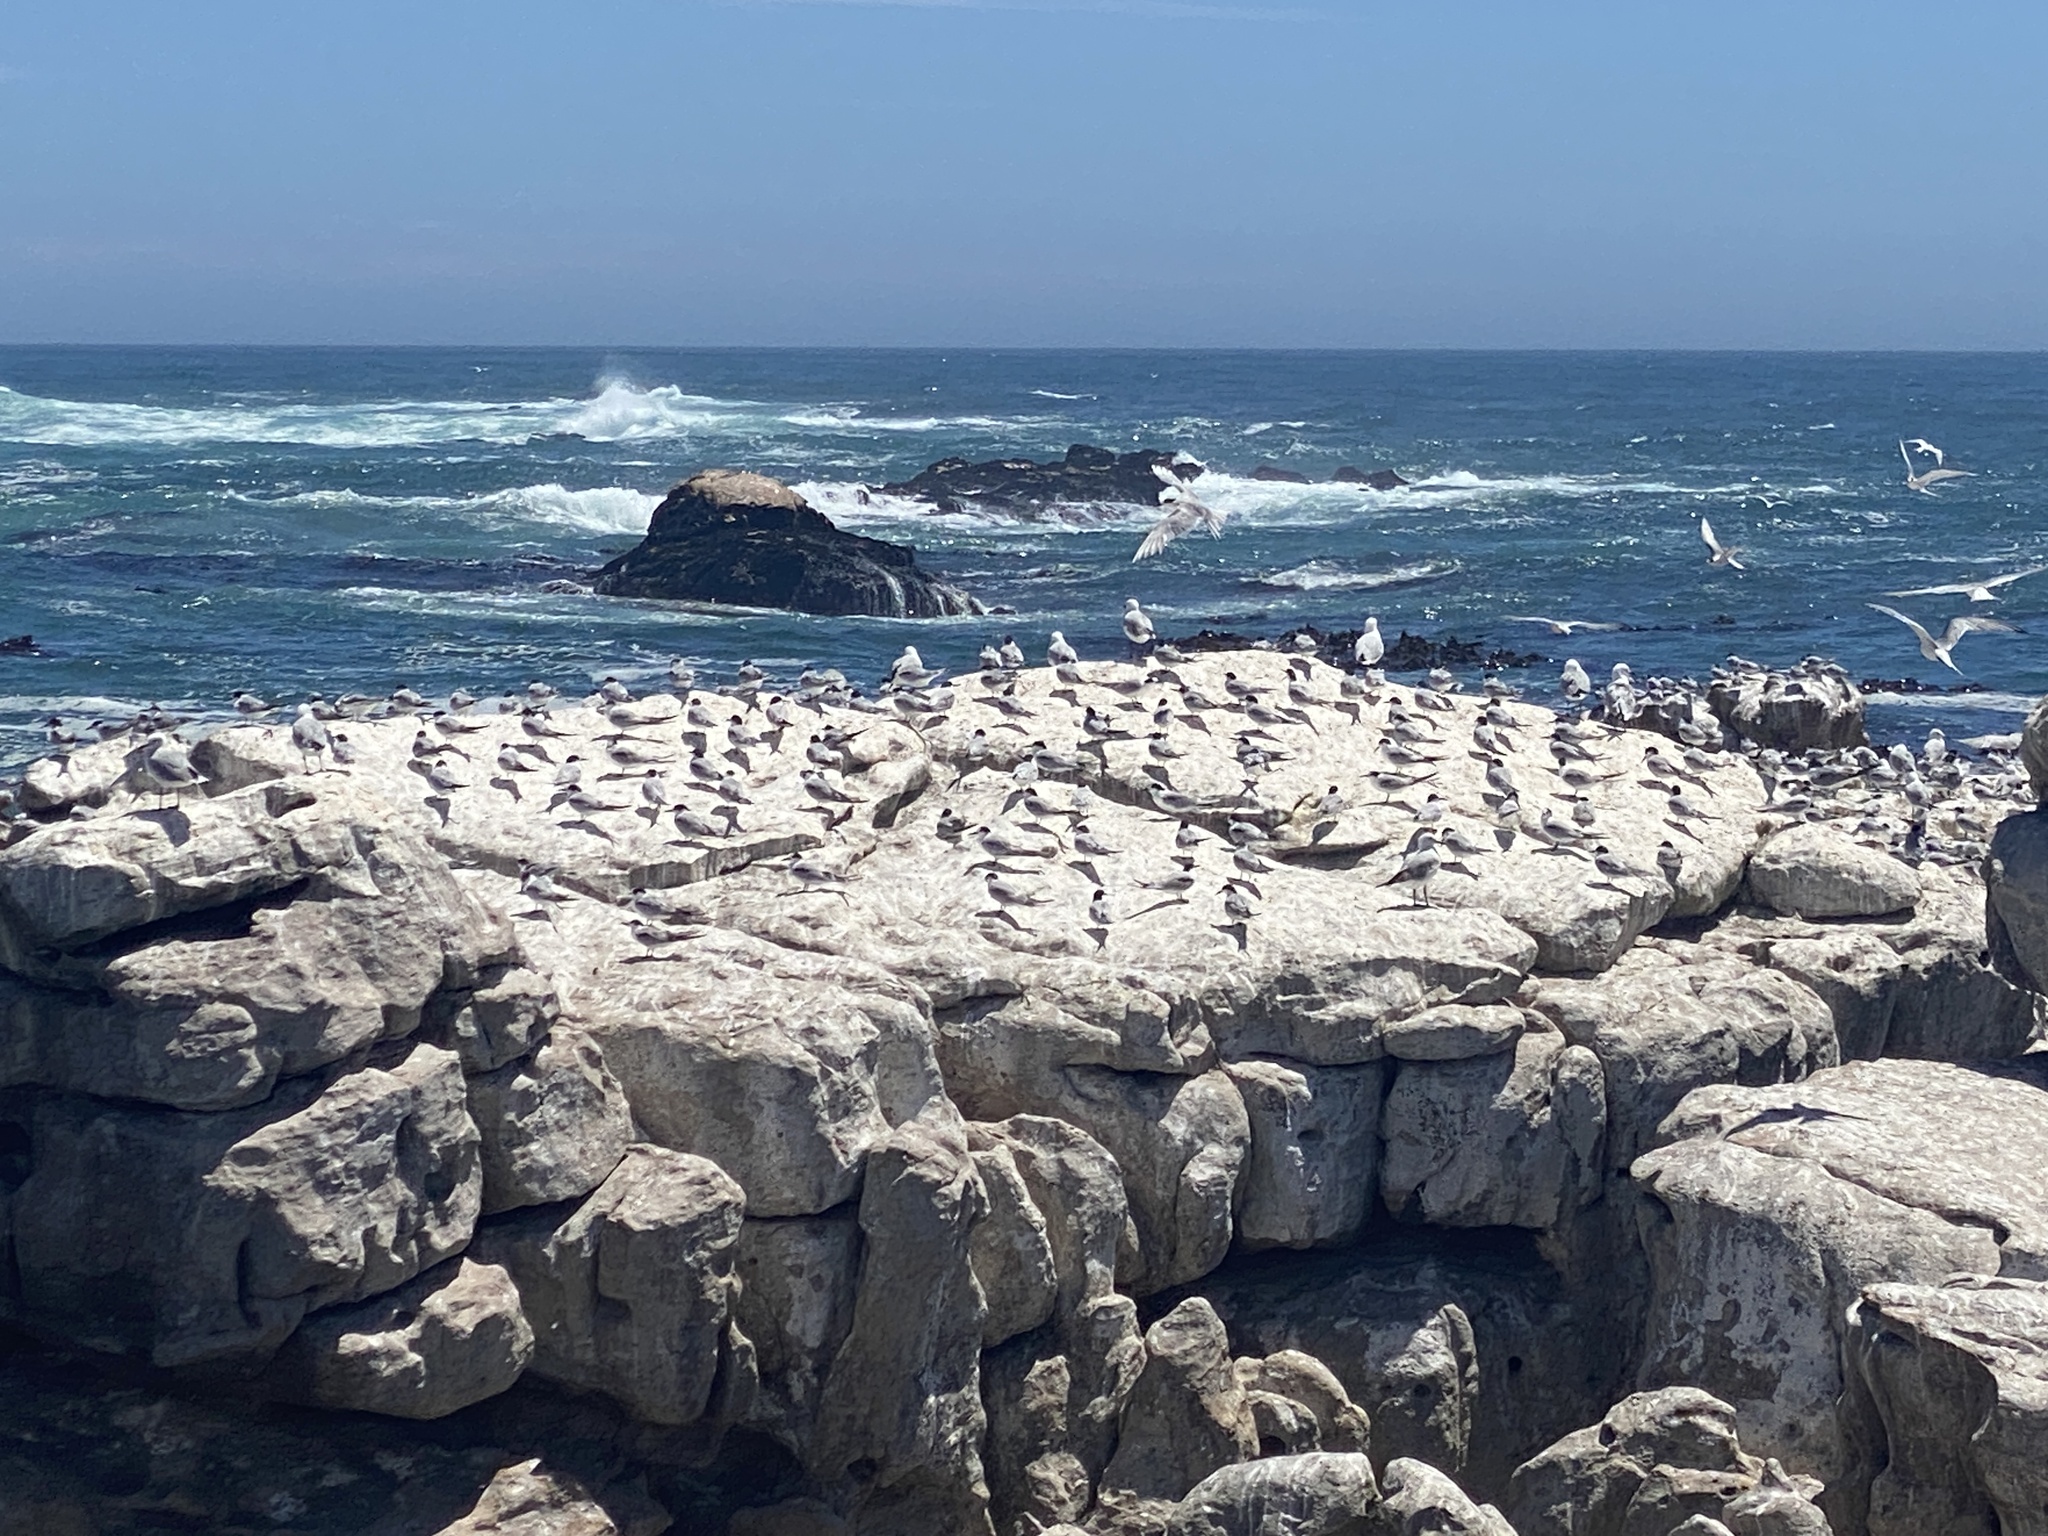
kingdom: Animalia
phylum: Chordata
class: Aves
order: Charadriiformes
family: Laridae
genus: Sterna
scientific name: Sterna hirundo
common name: Common tern
